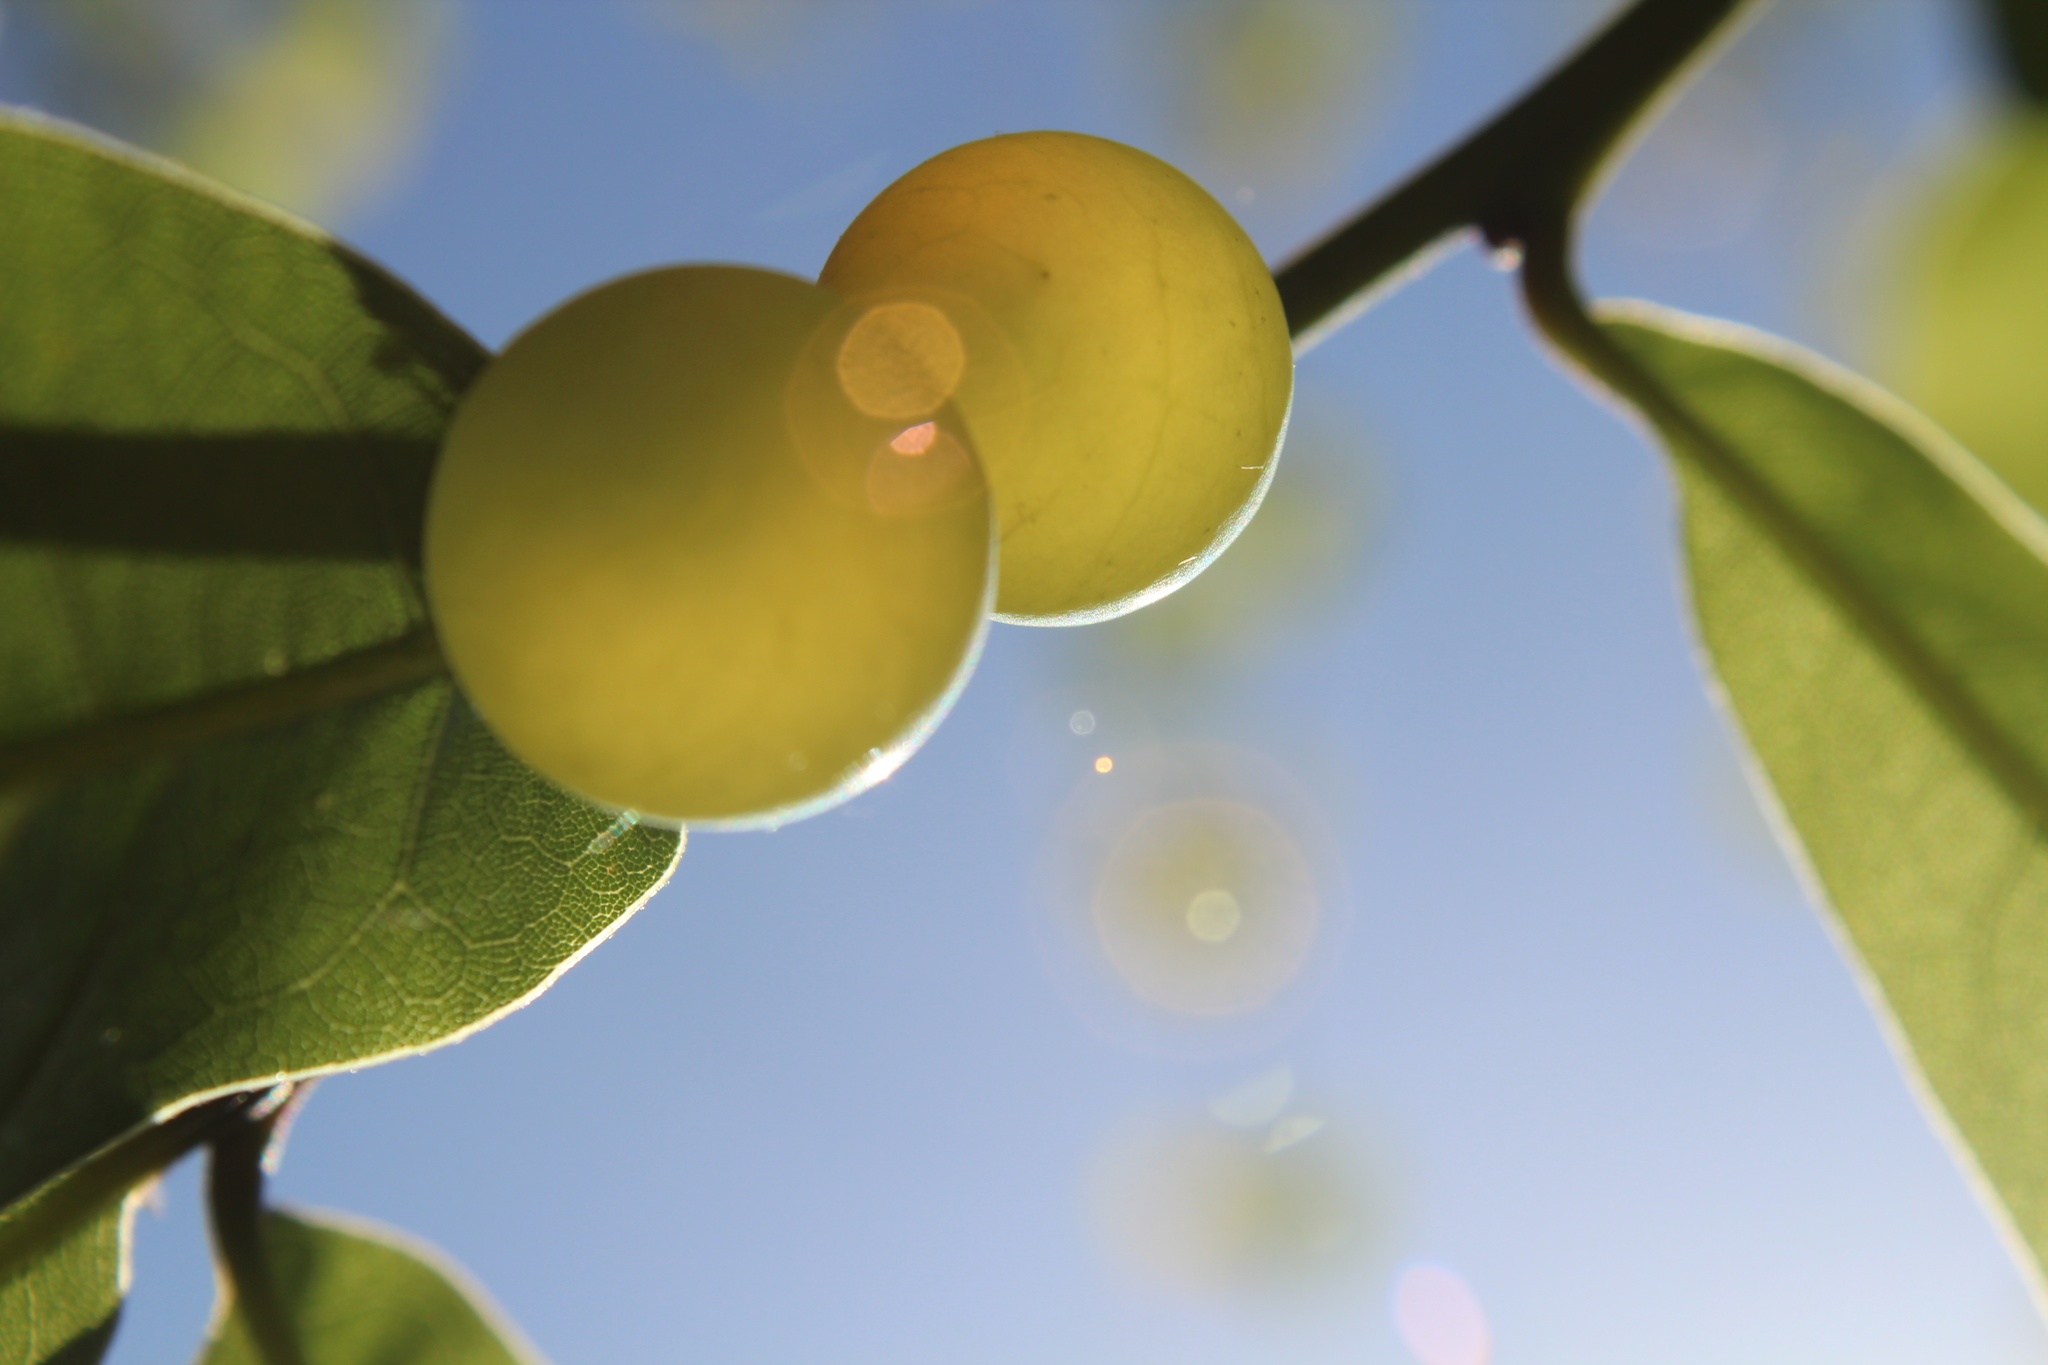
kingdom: Animalia
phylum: Arthropoda
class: Insecta
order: Hymenoptera
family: Cynipidae
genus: Amphibolips
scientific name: Amphibolips
